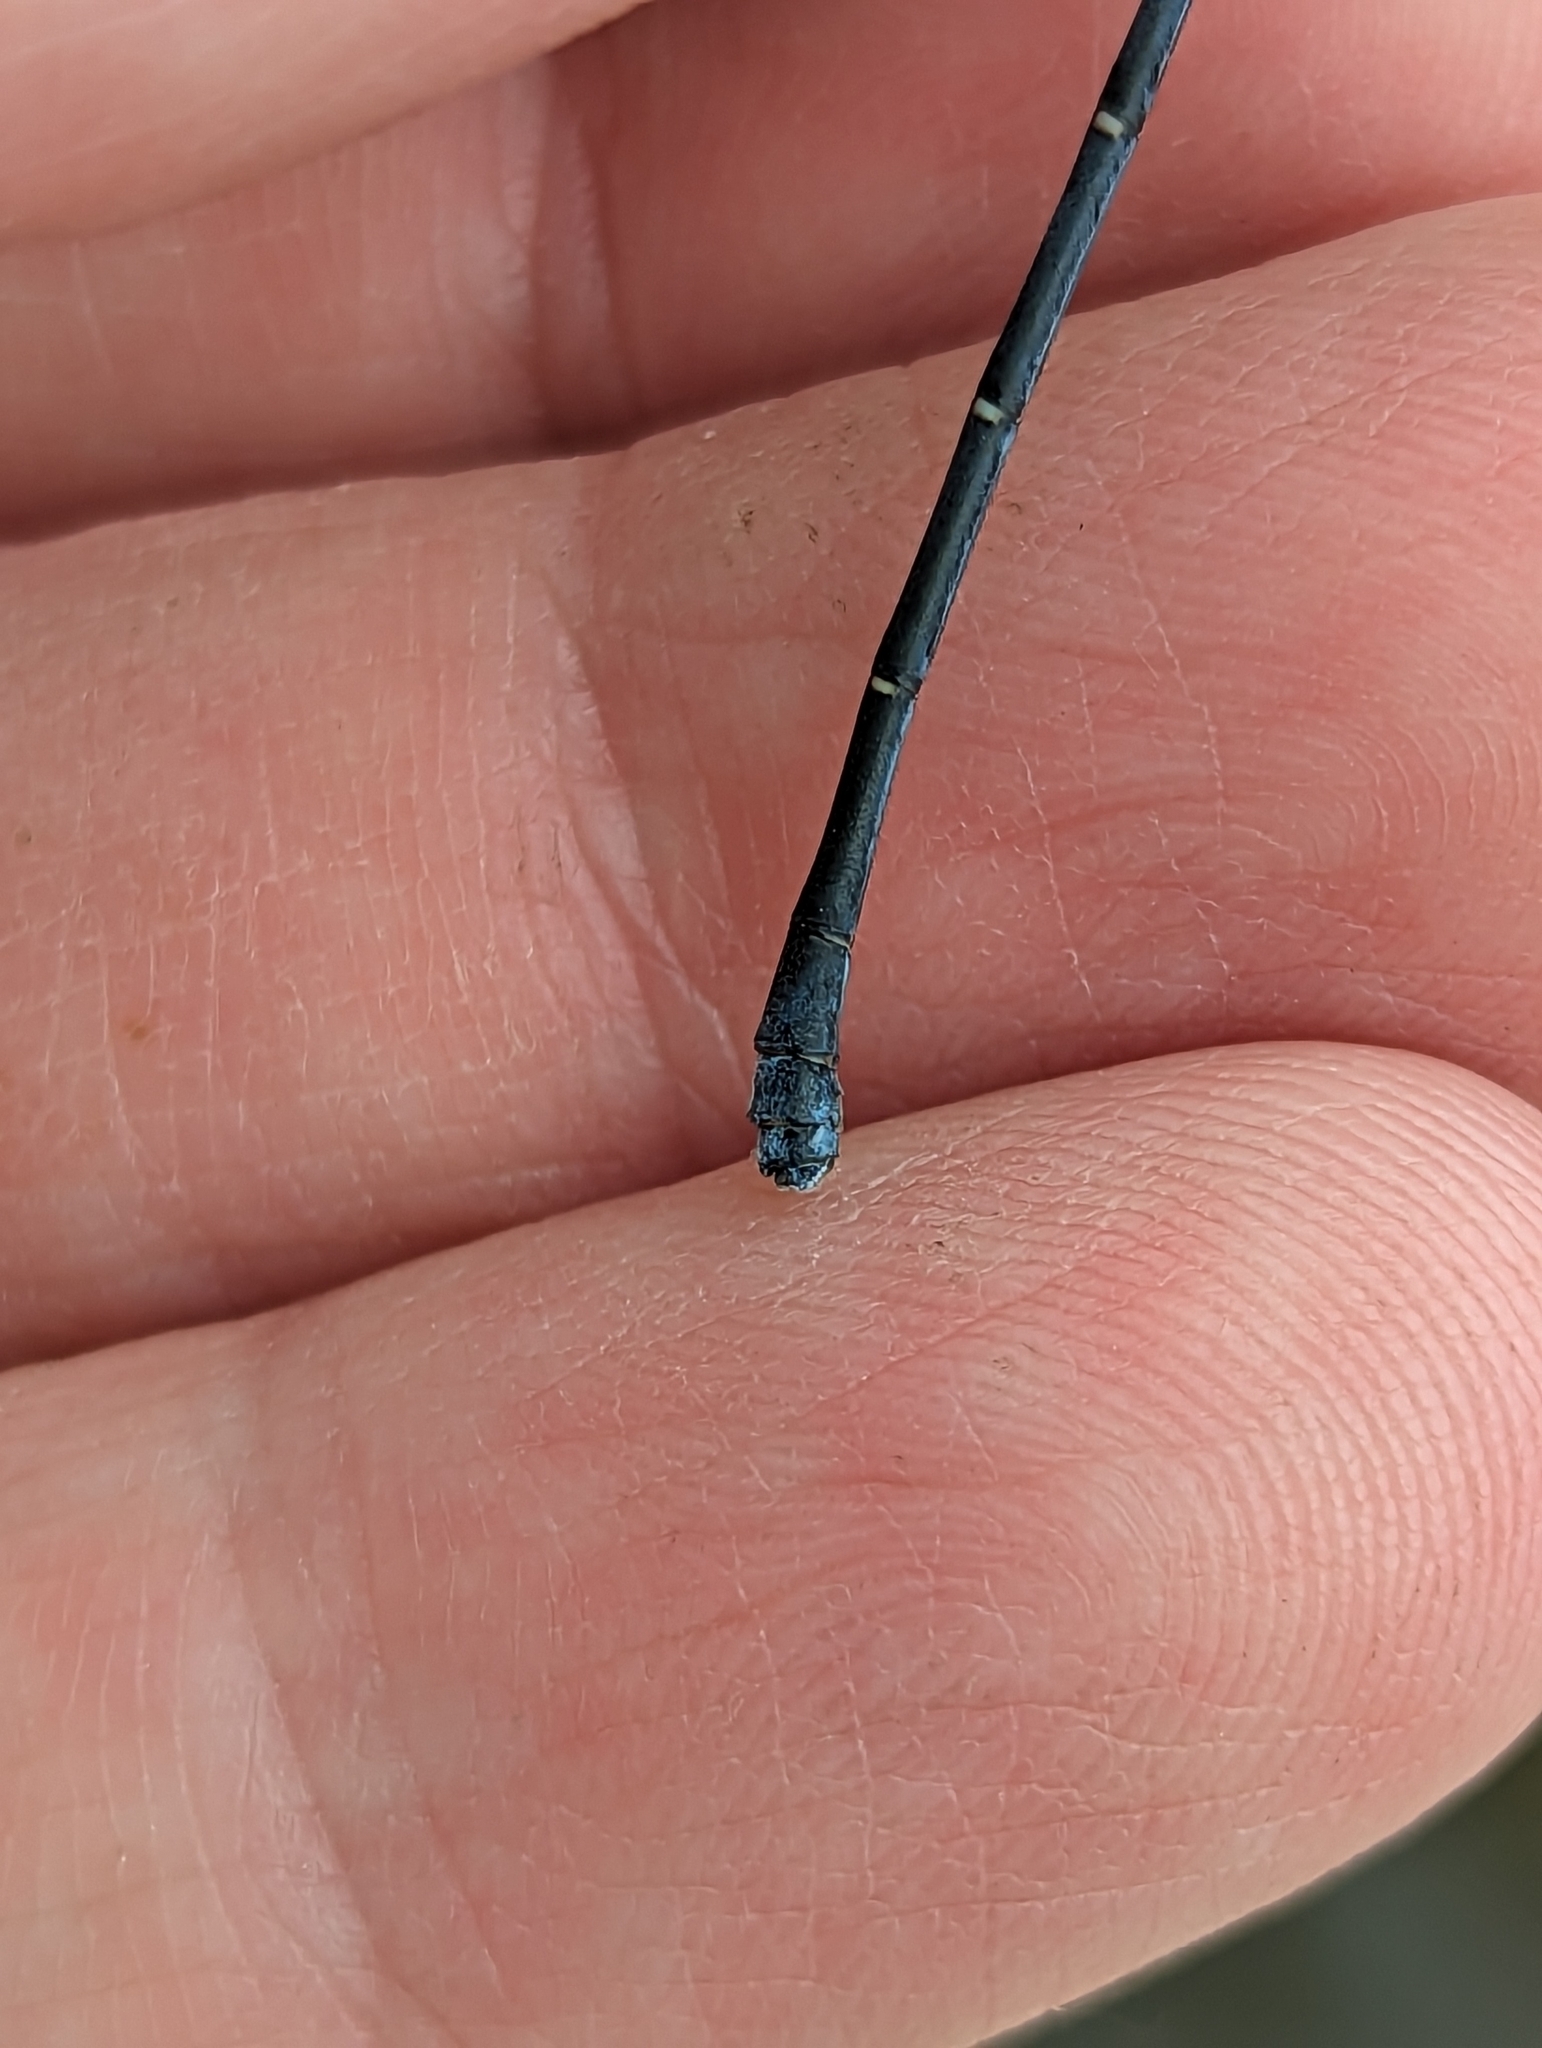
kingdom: Animalia
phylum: Arthropoda
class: Insecta
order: Odonata
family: Coenagrionidae
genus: Argia
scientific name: Argia moesta
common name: Powdered dancer
